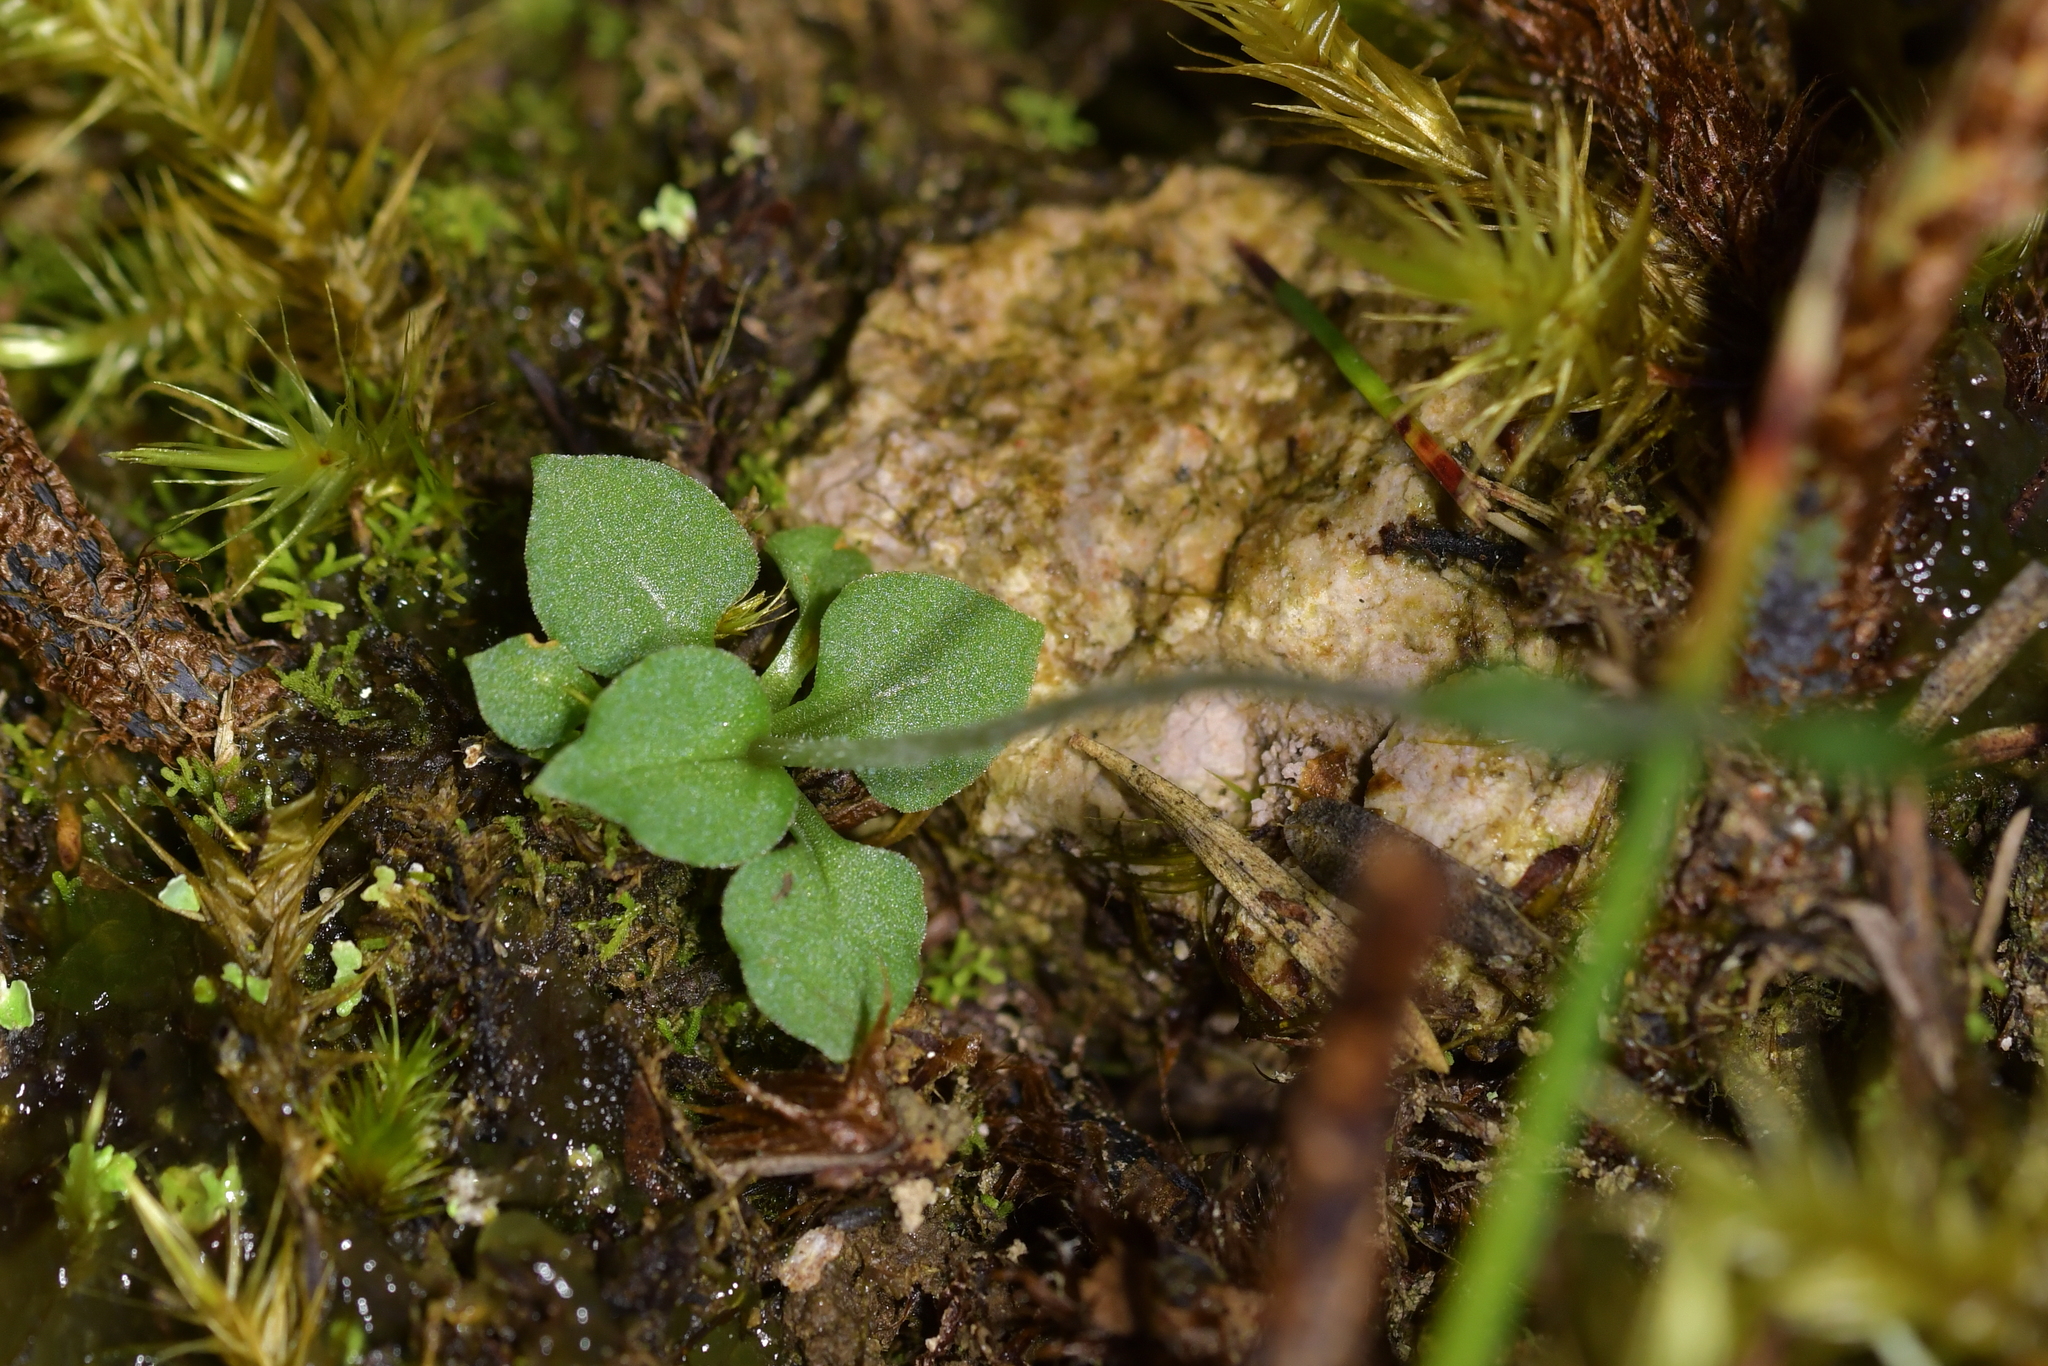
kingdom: Plantae
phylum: Tracheophyta
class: Liliopsida
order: Asparagales
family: Orchidaceae
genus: Pterostylis
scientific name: Pterostylis puberula
